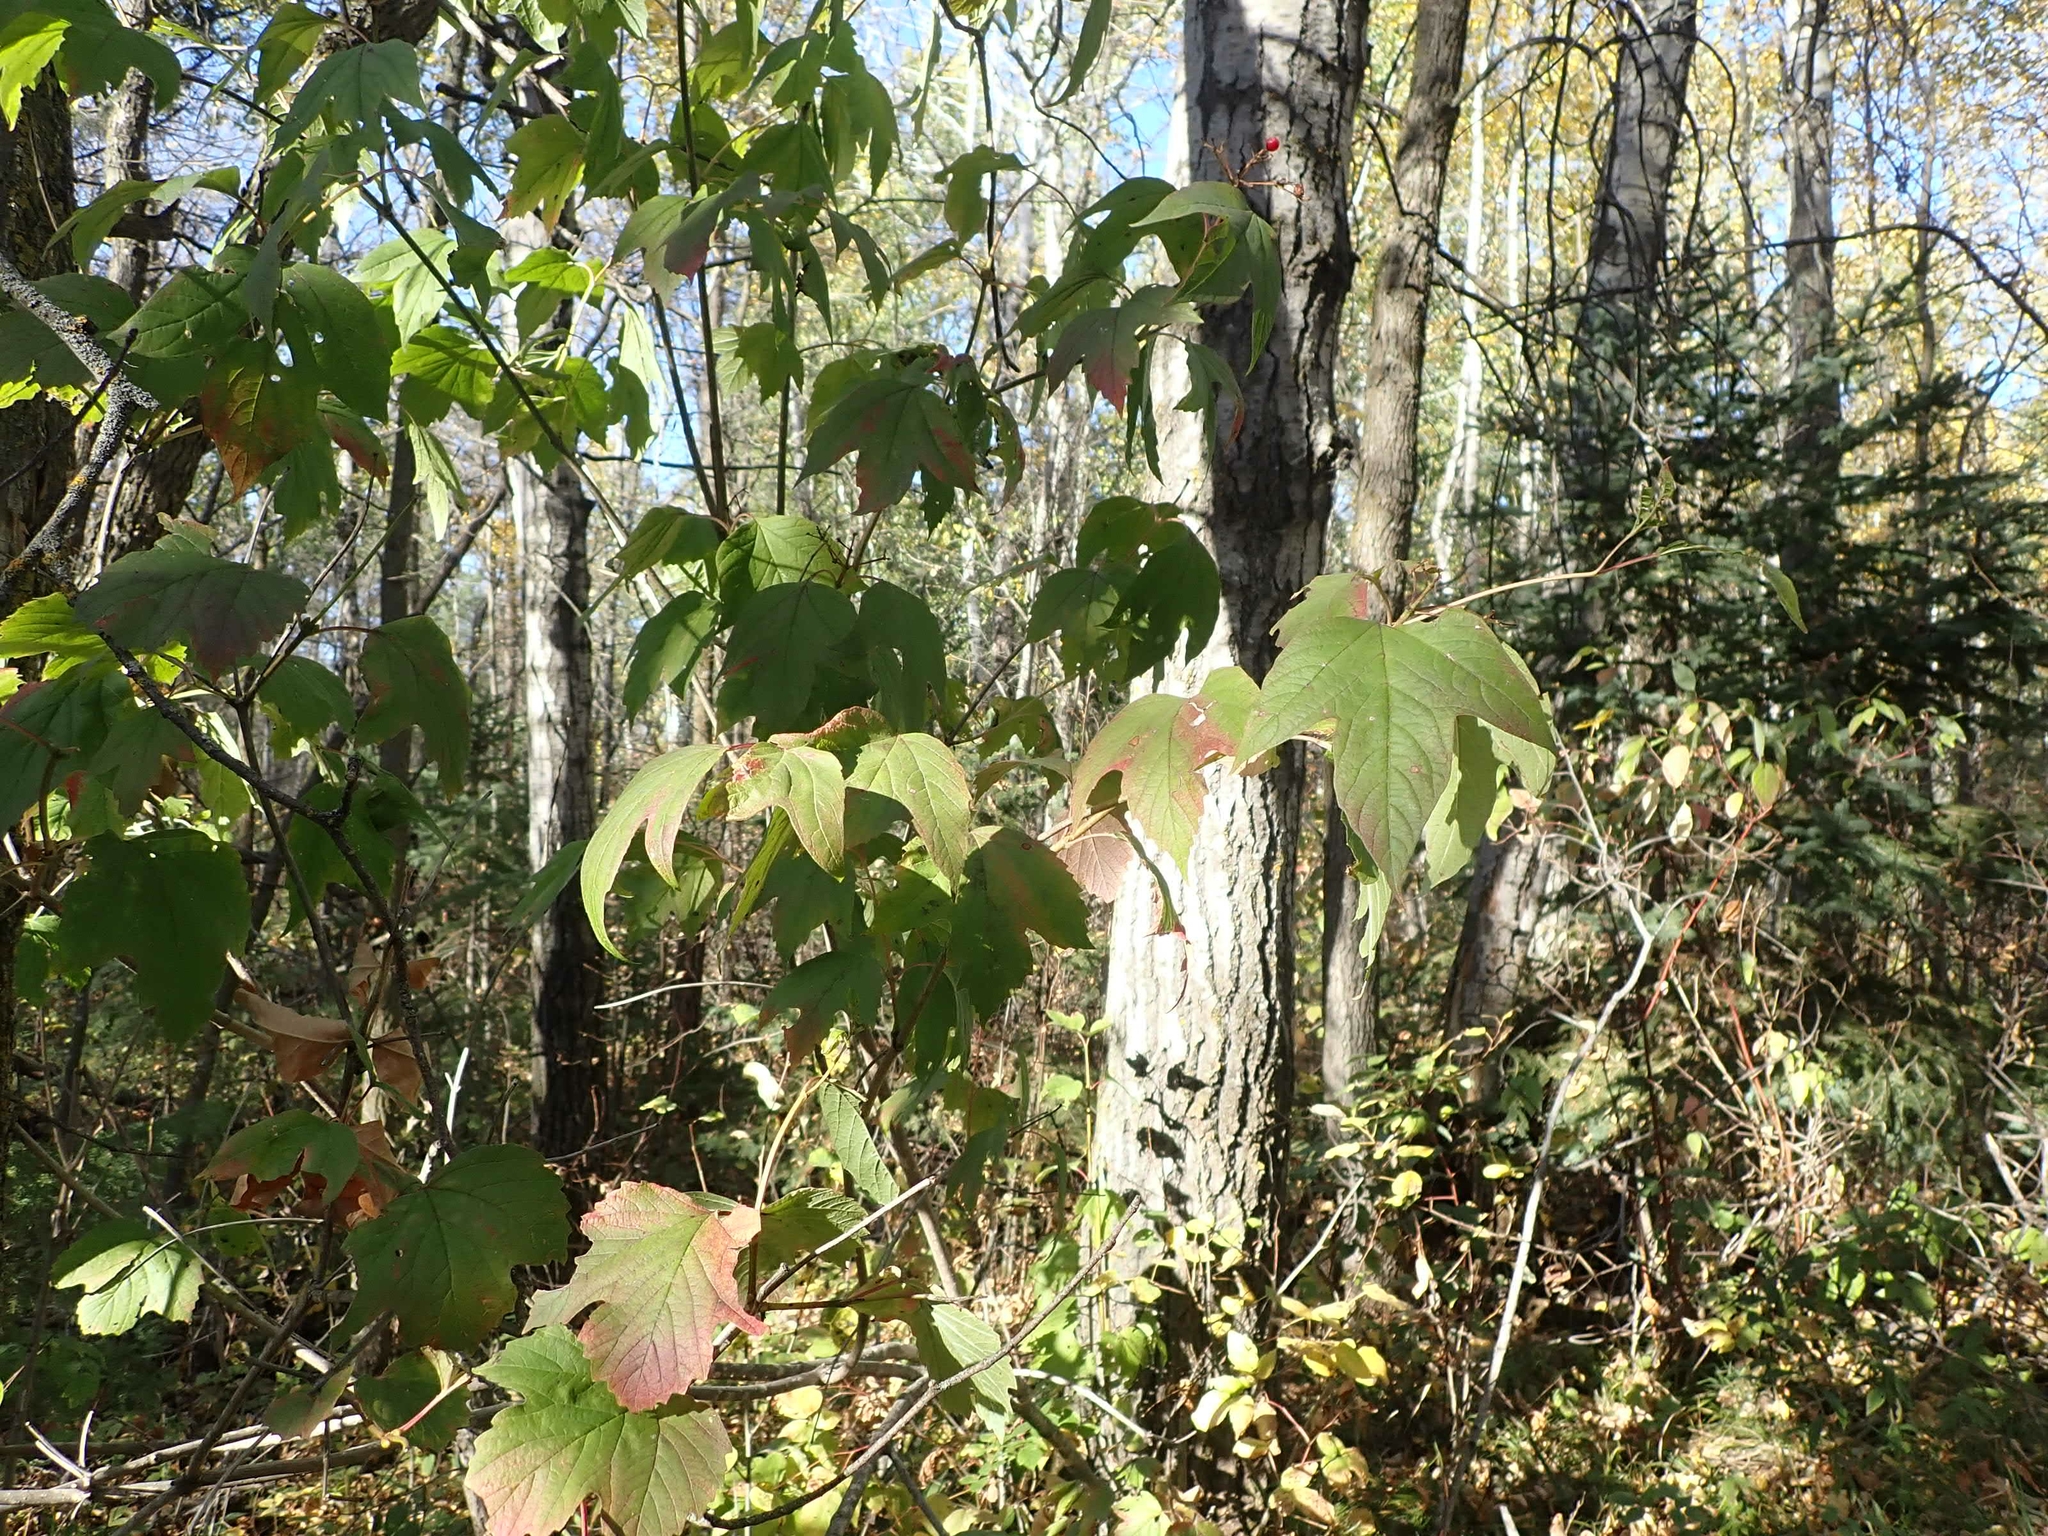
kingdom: Plantae
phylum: Tracheophyta
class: Magnoliopsida
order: Dipsacales
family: Viburnaceae
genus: Viburnum
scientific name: Viburnum trilobum
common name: American cranberrybush
